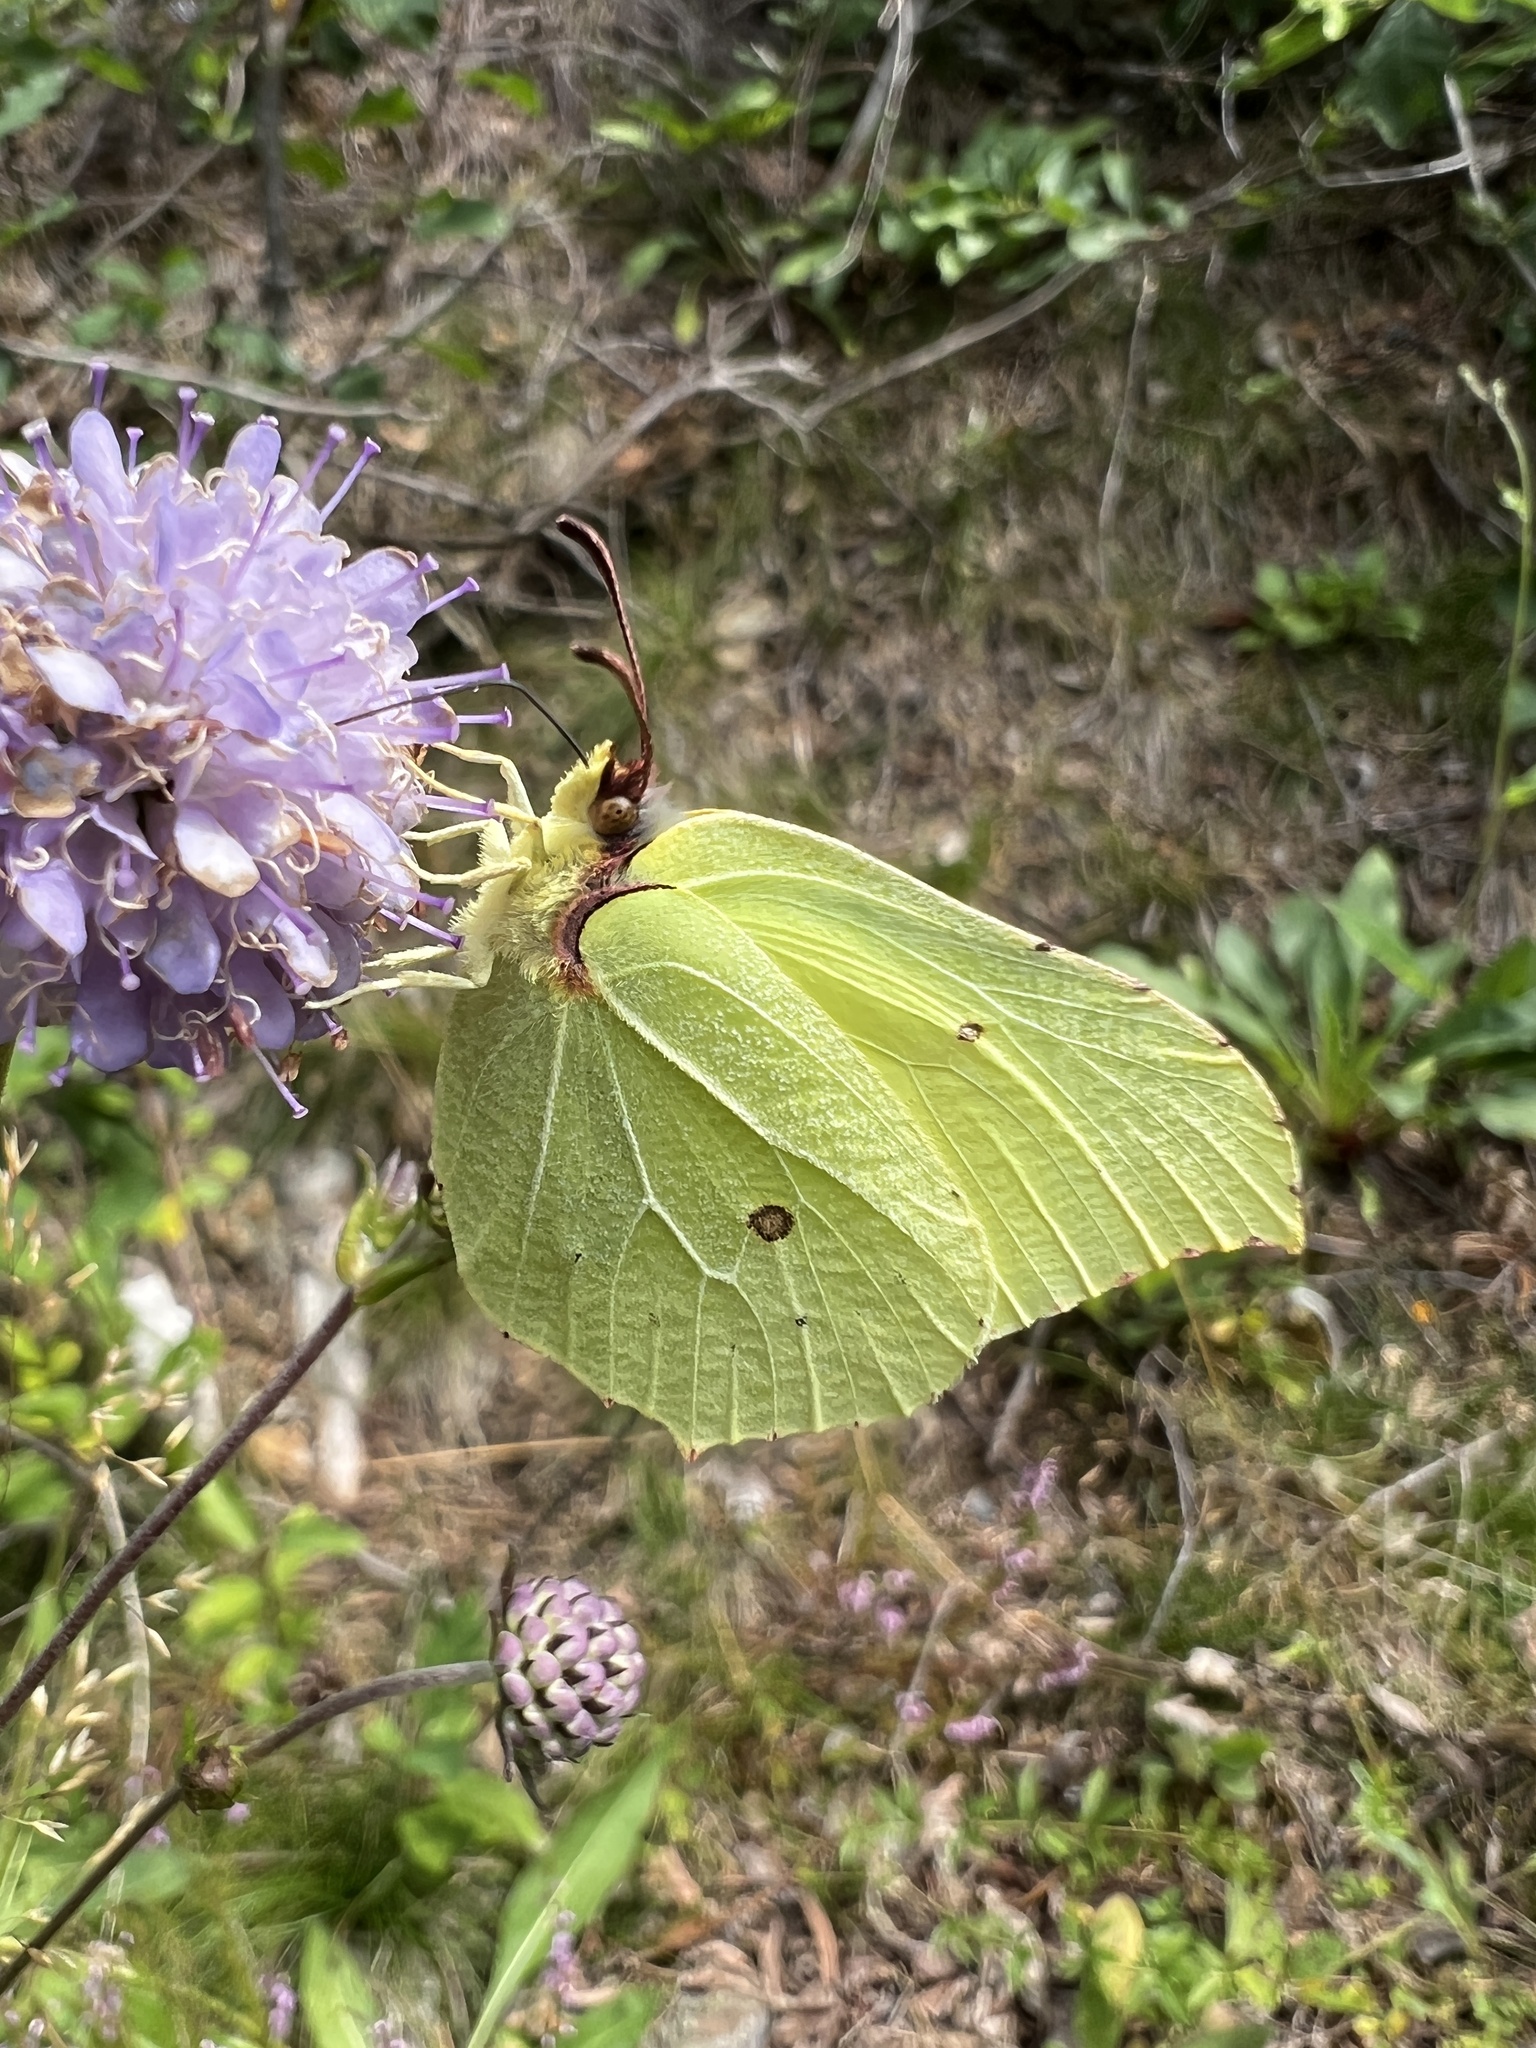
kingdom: Animalia
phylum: Arthropoda
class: Insecta
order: Lepidoptera
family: Pieridae
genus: Gonepteryx
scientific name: Gonepteryx rhamni
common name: Brimstone
